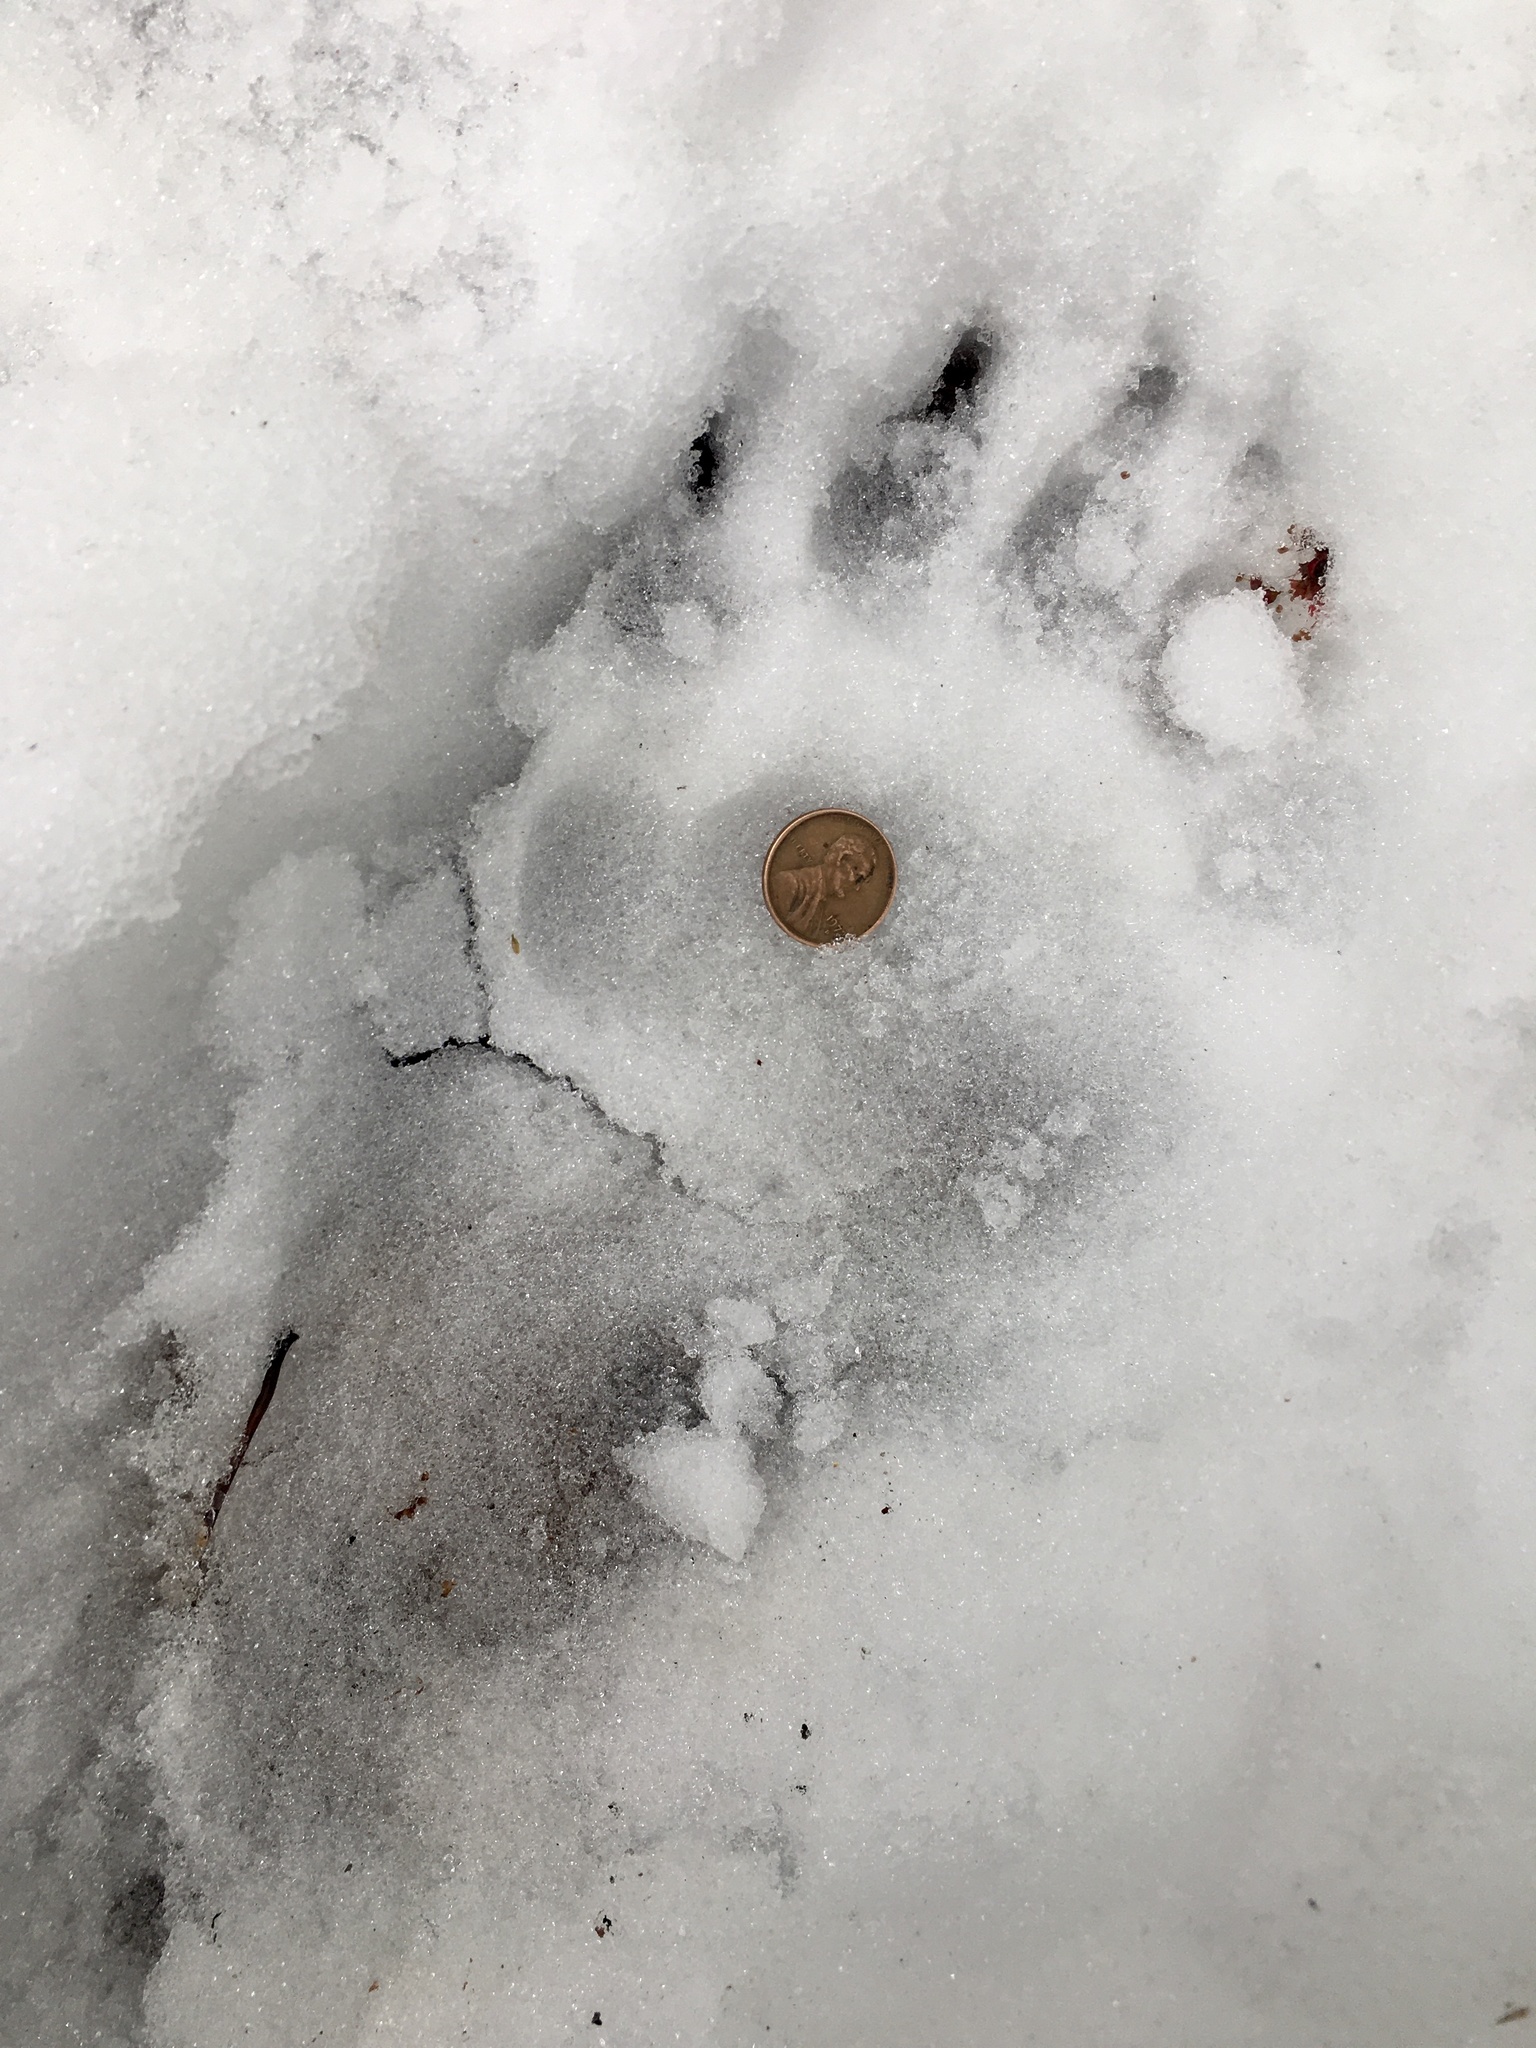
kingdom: Animalia
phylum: Chordata
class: Mammalia
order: Carnivora
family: Ursidae
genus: Ursus
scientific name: Ursus americanus
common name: American black bear
